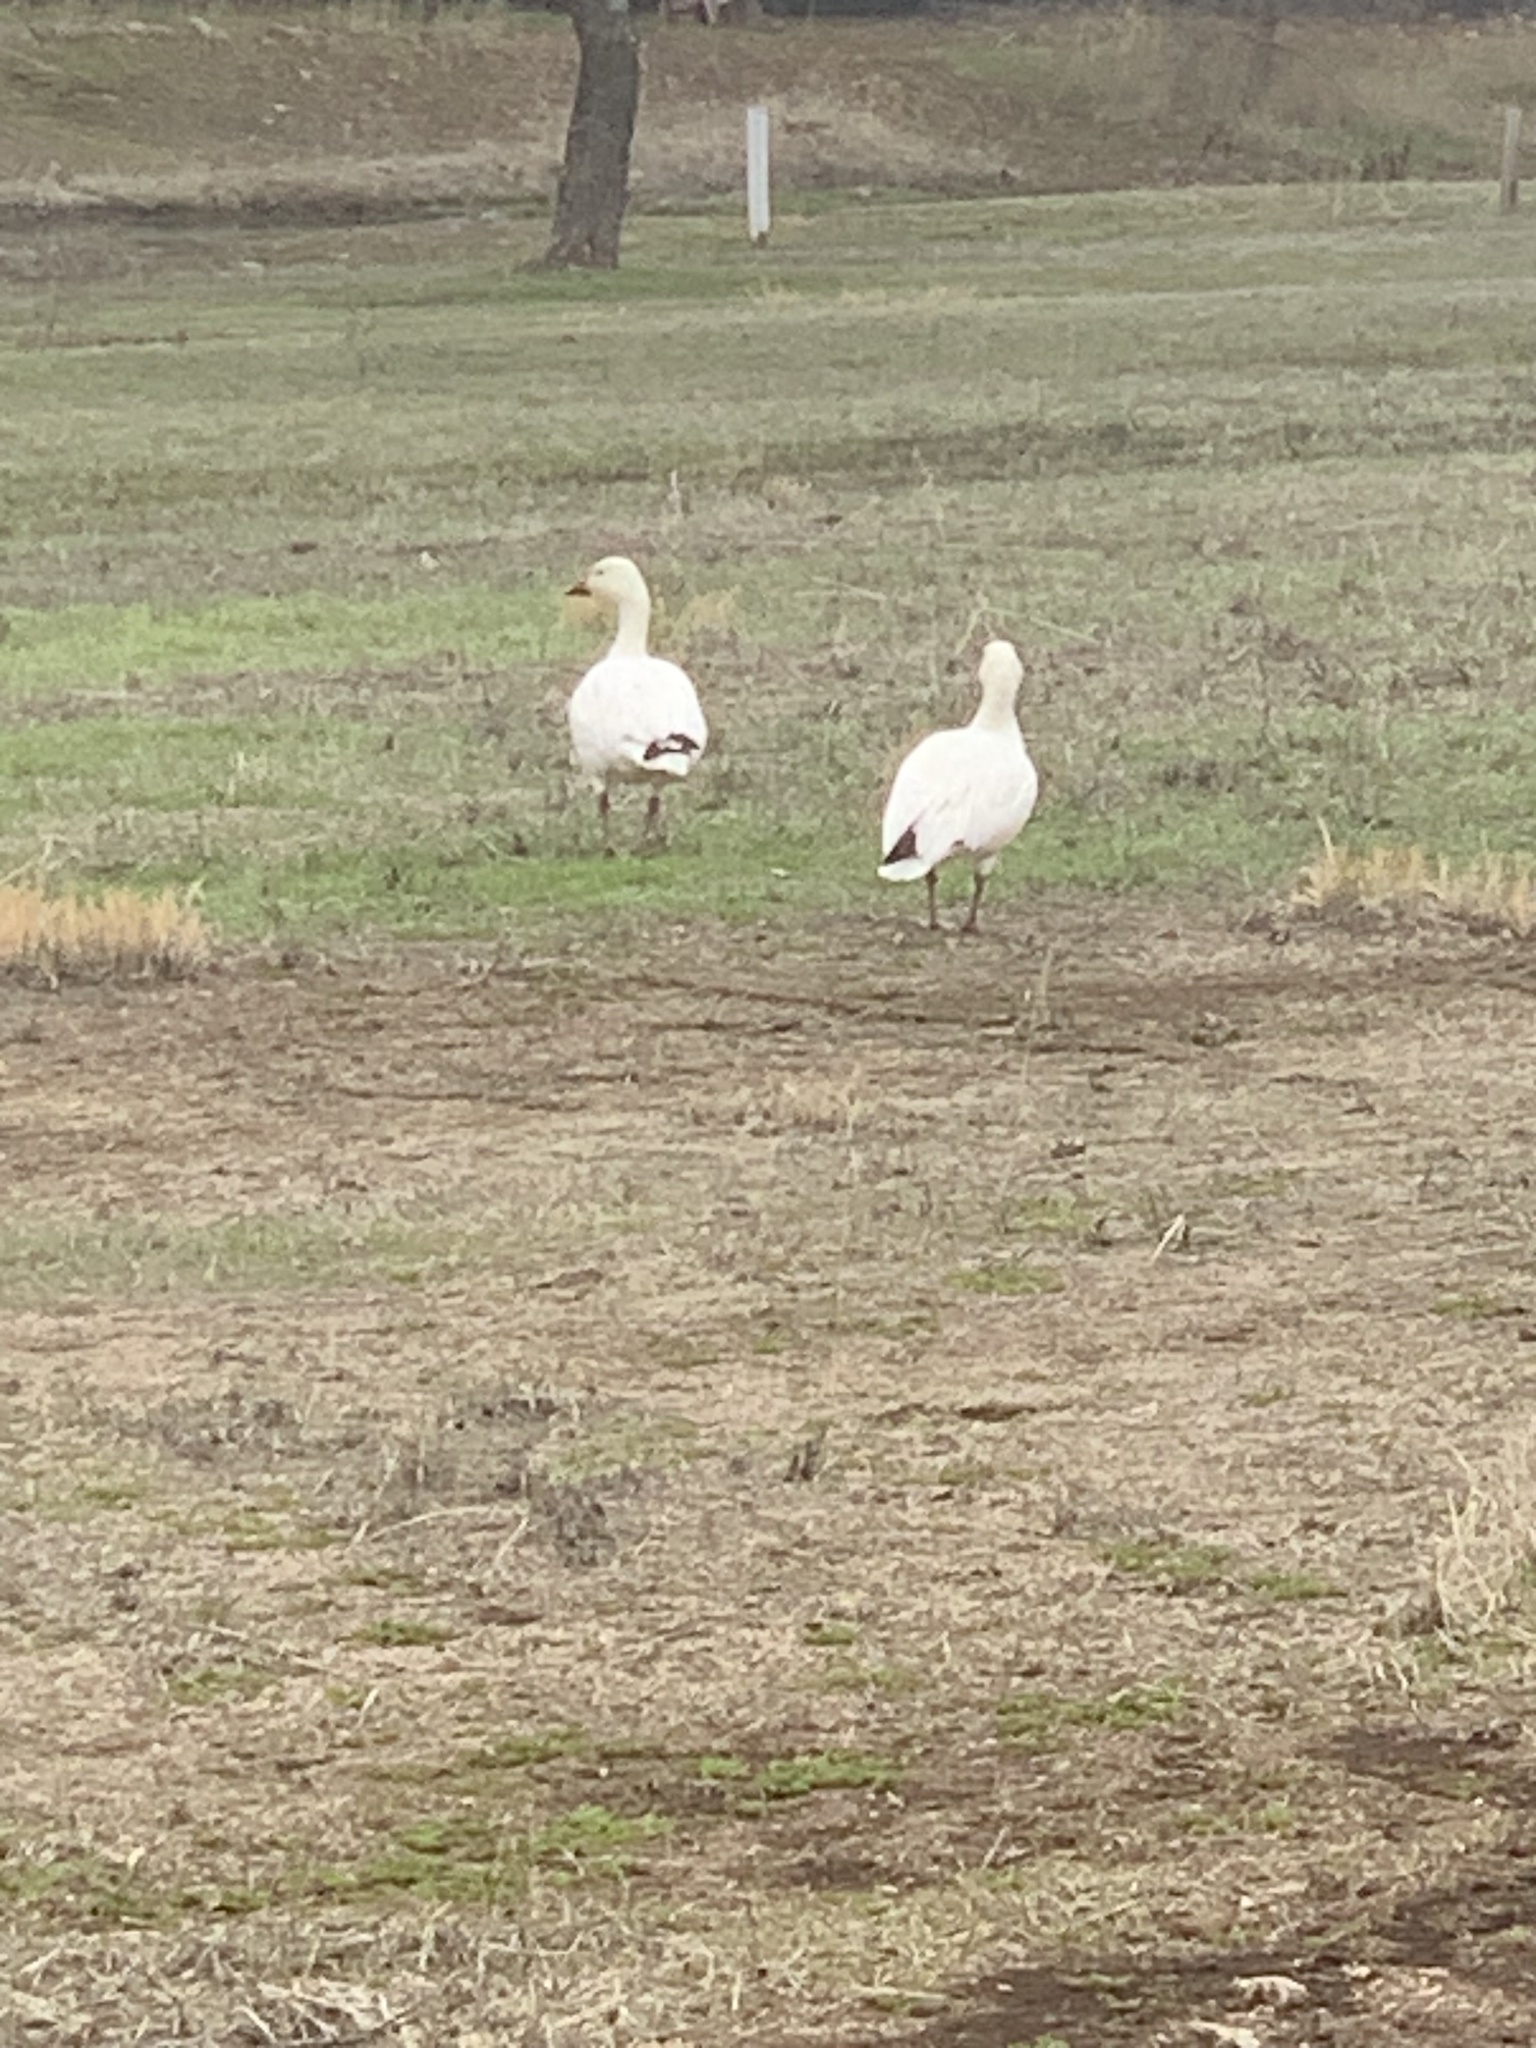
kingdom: Animalia
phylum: Chordata
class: Aves
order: Anseriformes
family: Anatidae
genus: Anser
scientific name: Anser caerulescens
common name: Snow goose
